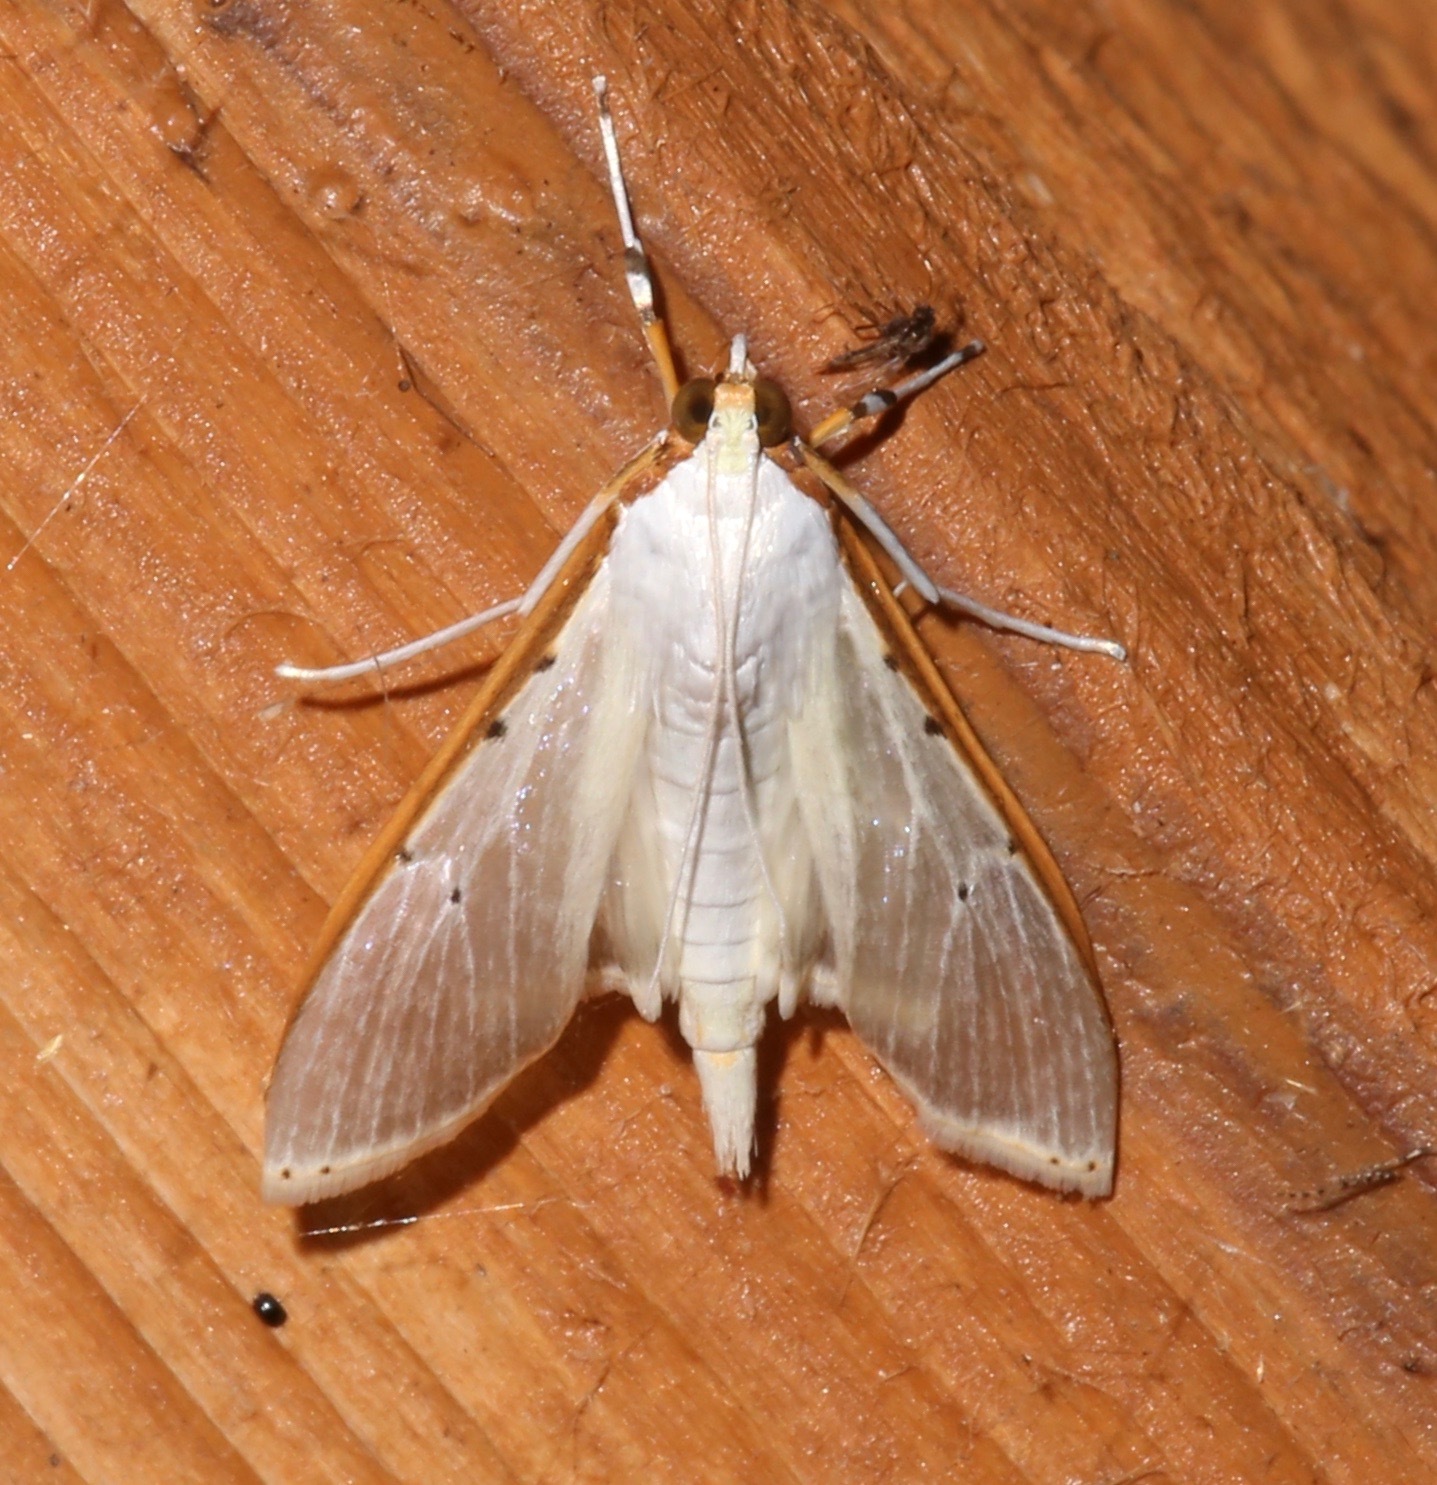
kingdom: Animalia
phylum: Arthropoda
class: Insecta
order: Lepidoptera
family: Crambidae
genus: Palpita
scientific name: Palpita quadristigmalis
